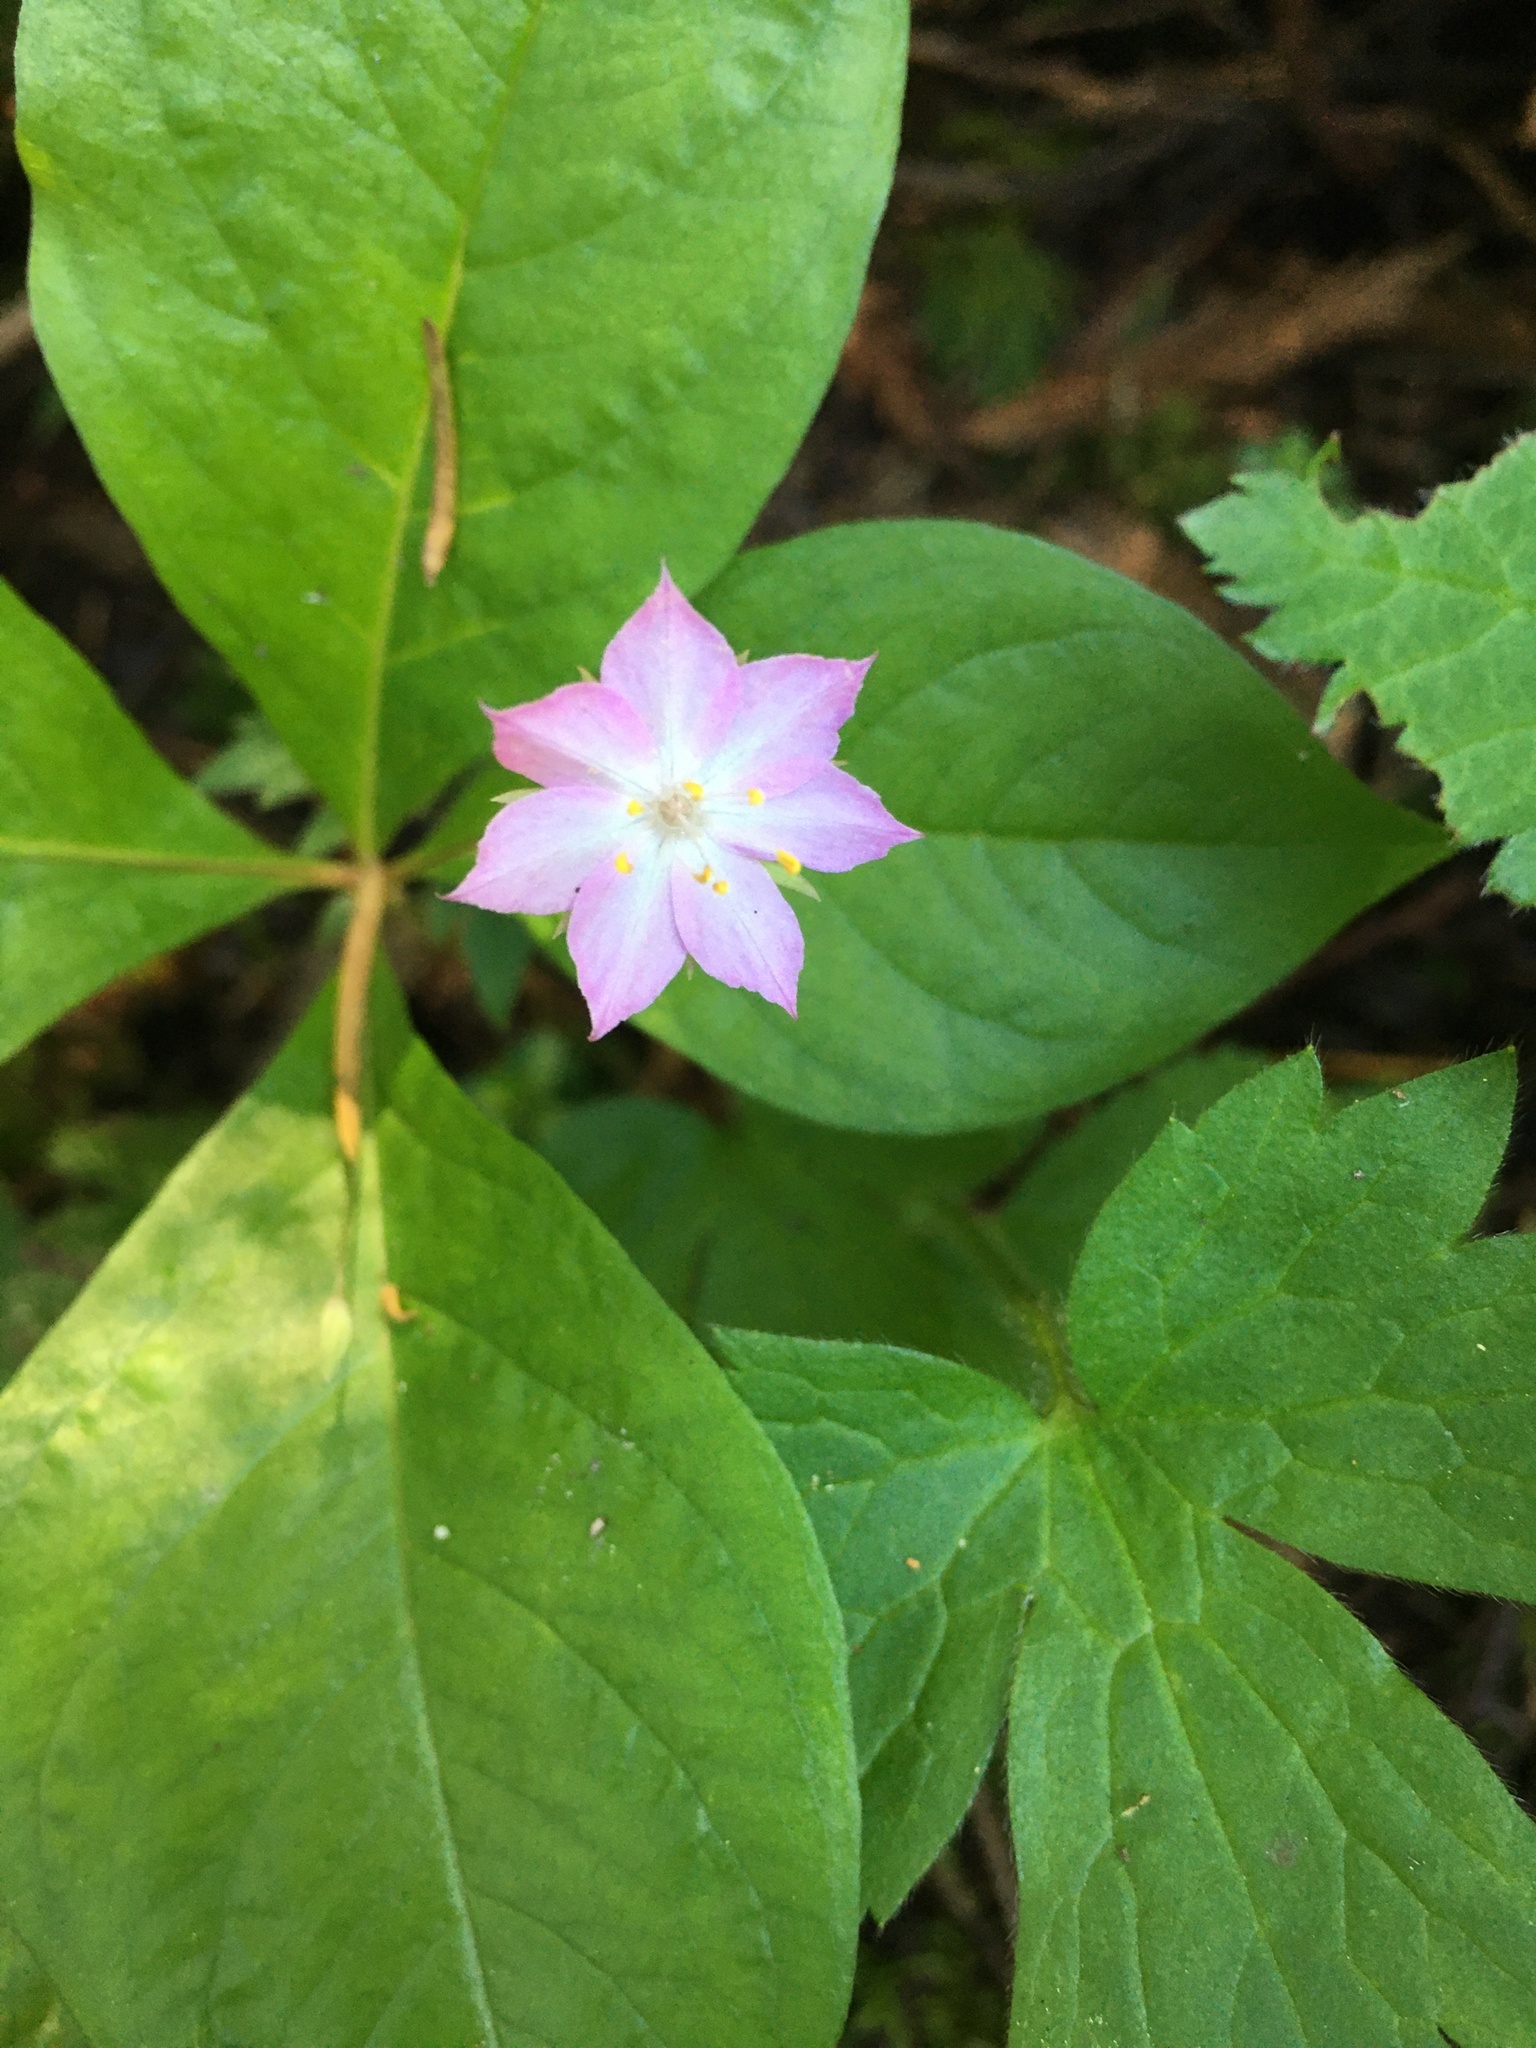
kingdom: Plantae
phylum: Tracheophyta
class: Magnoliopsida
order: Ericales
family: Primulaceae
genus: Lysimachia
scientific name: Lysimachia latifolia
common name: Pacific starflower
